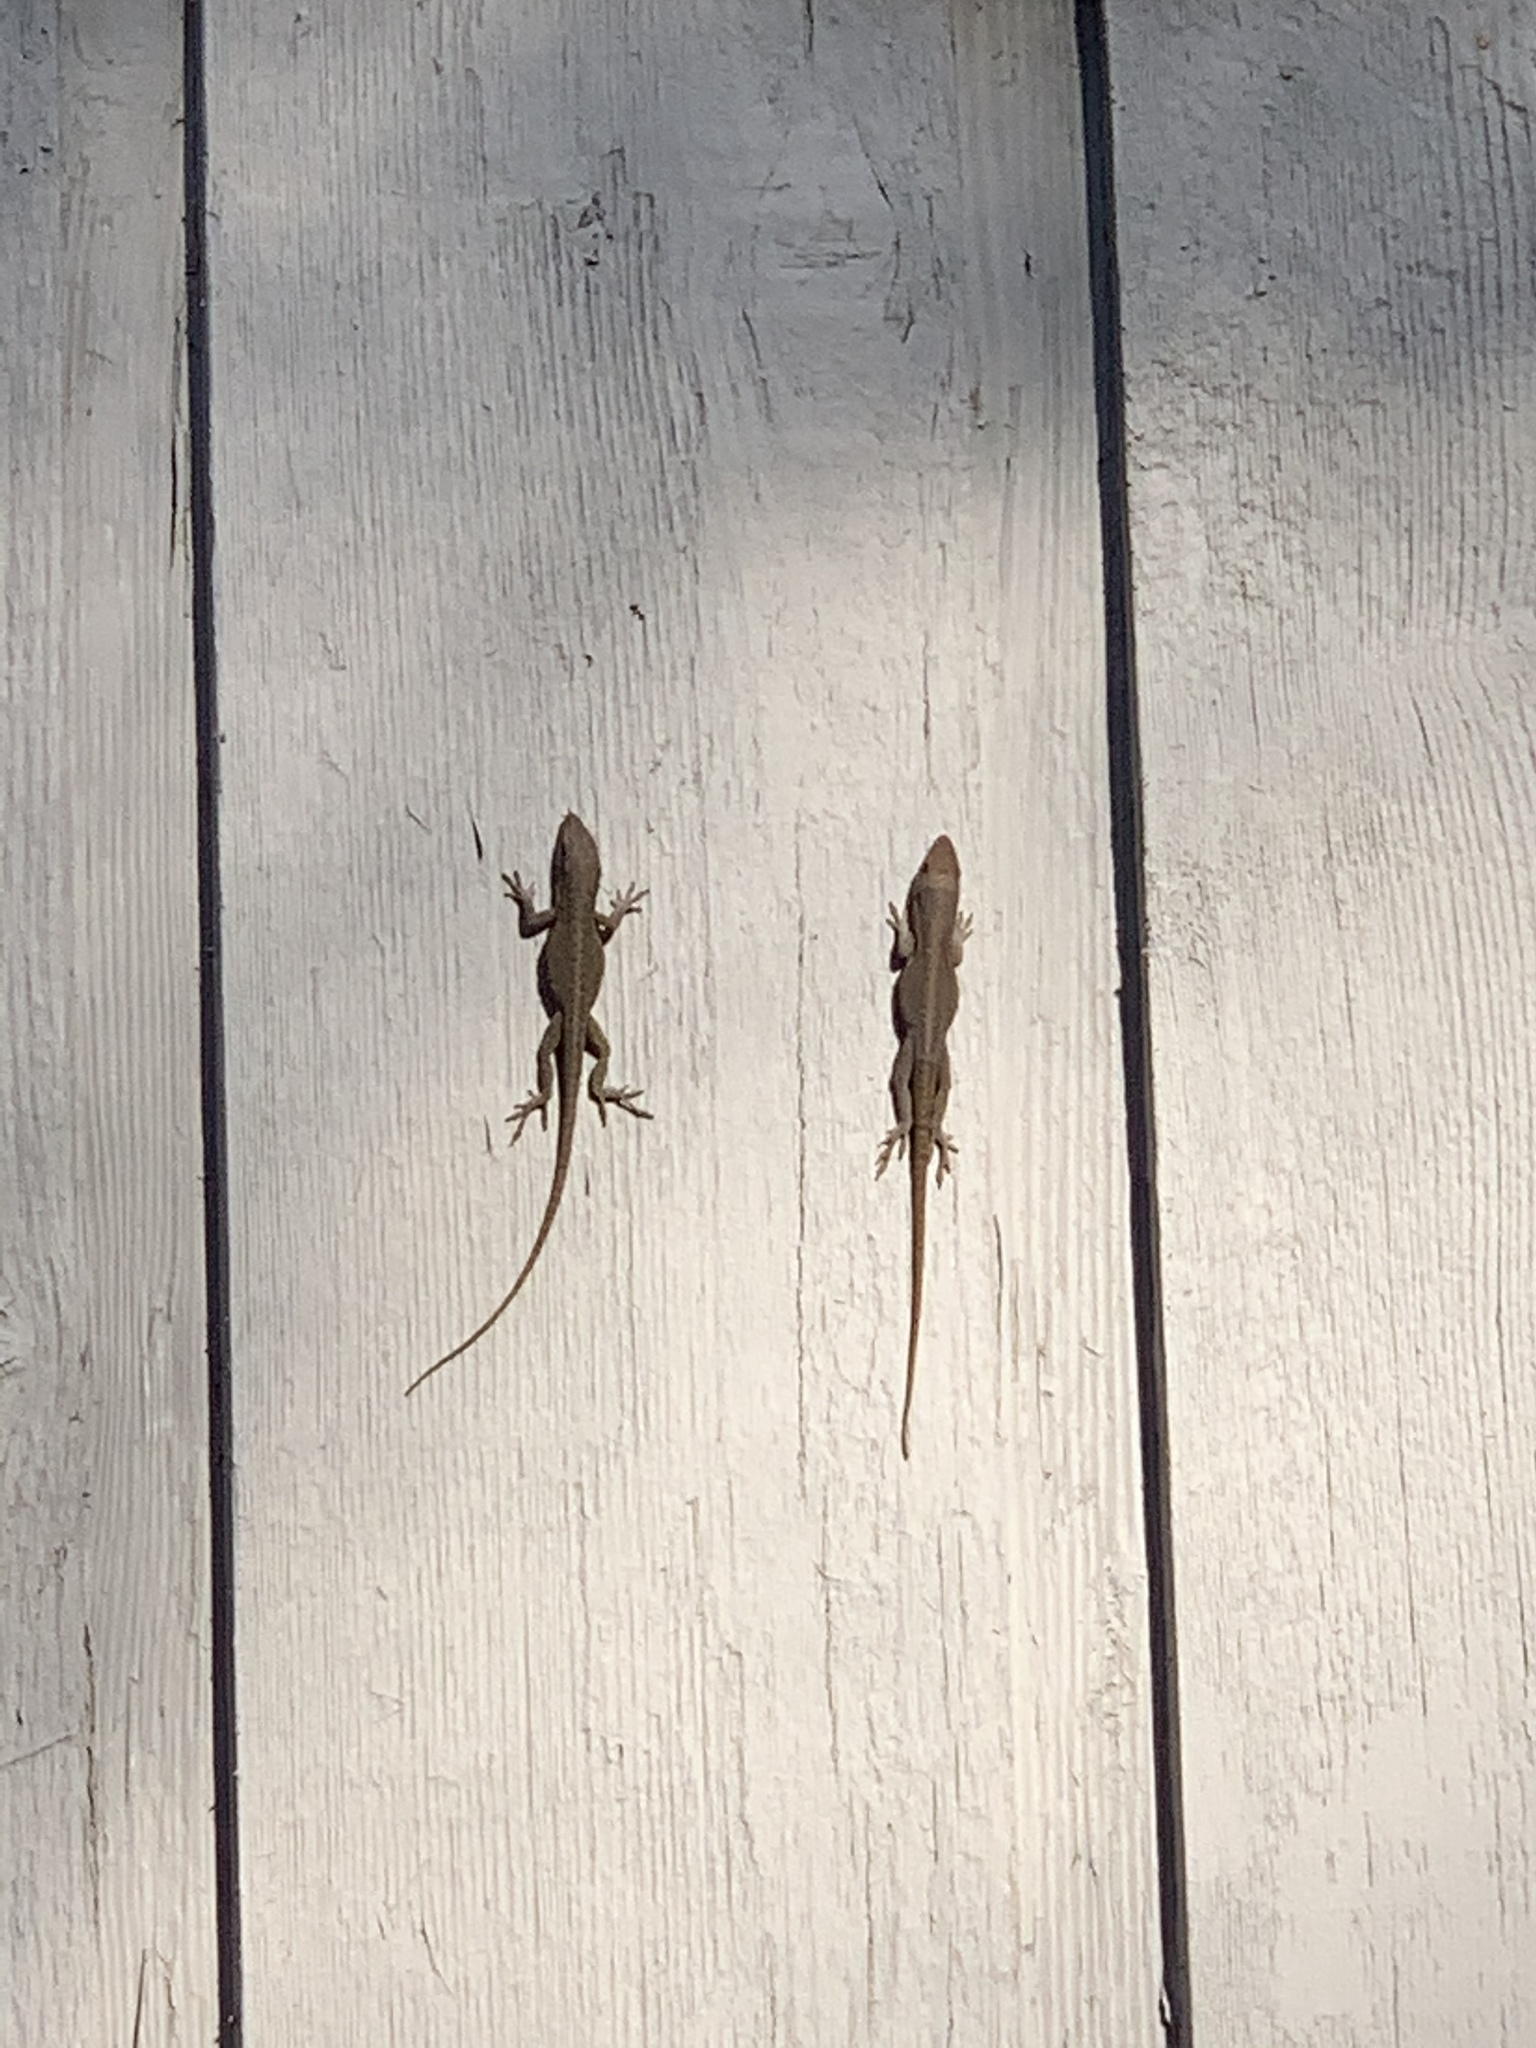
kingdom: Animalia
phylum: Chordata
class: Squamata
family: Dactyloidae
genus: Anolis
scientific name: Anolis carolinensis
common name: Green anole
